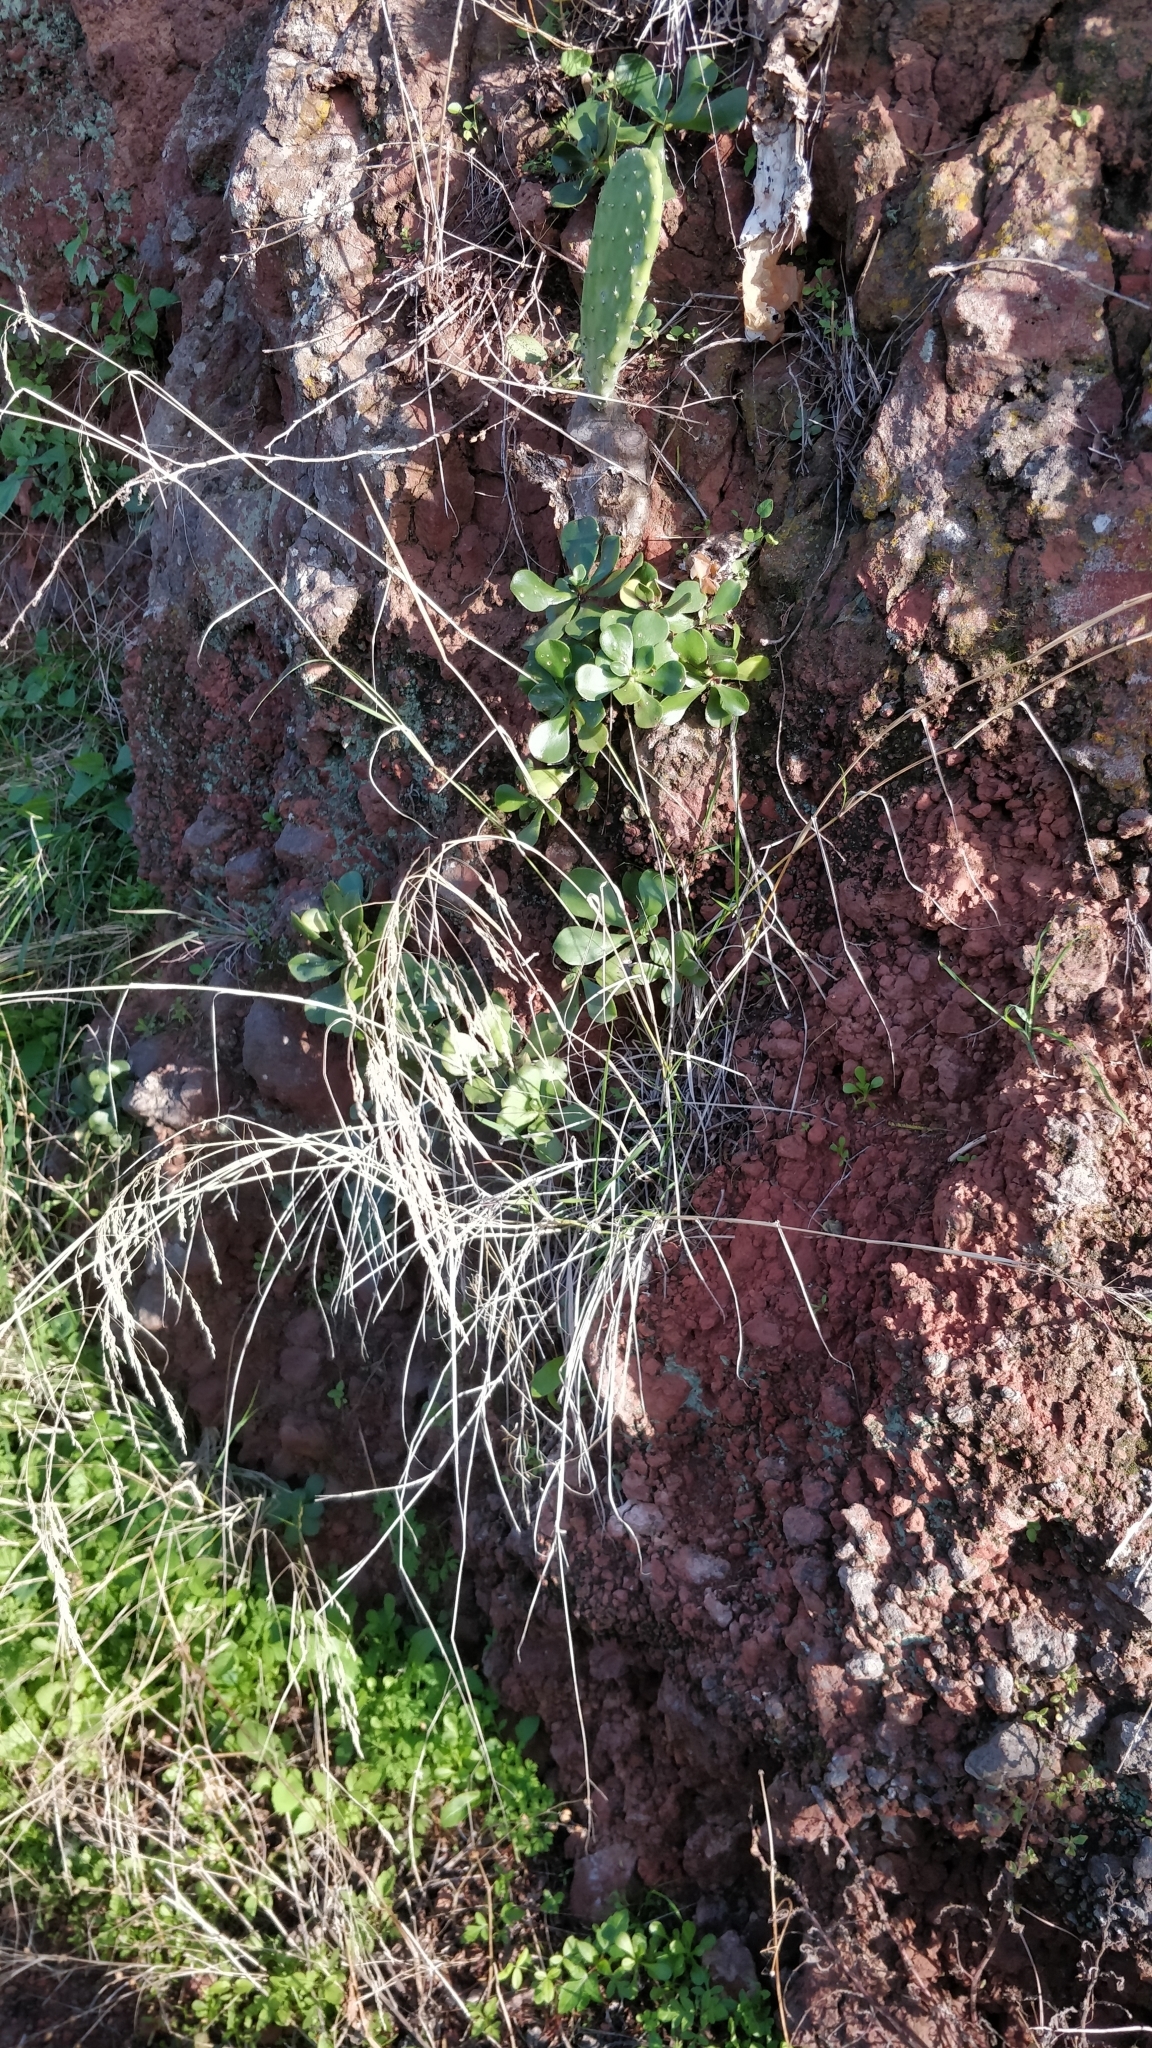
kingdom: Plantae
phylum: Tracheophyta
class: Liliopsida
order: Poales
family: Poaceae
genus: Poa
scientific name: Poa trivialis
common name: Rough bluegrass
